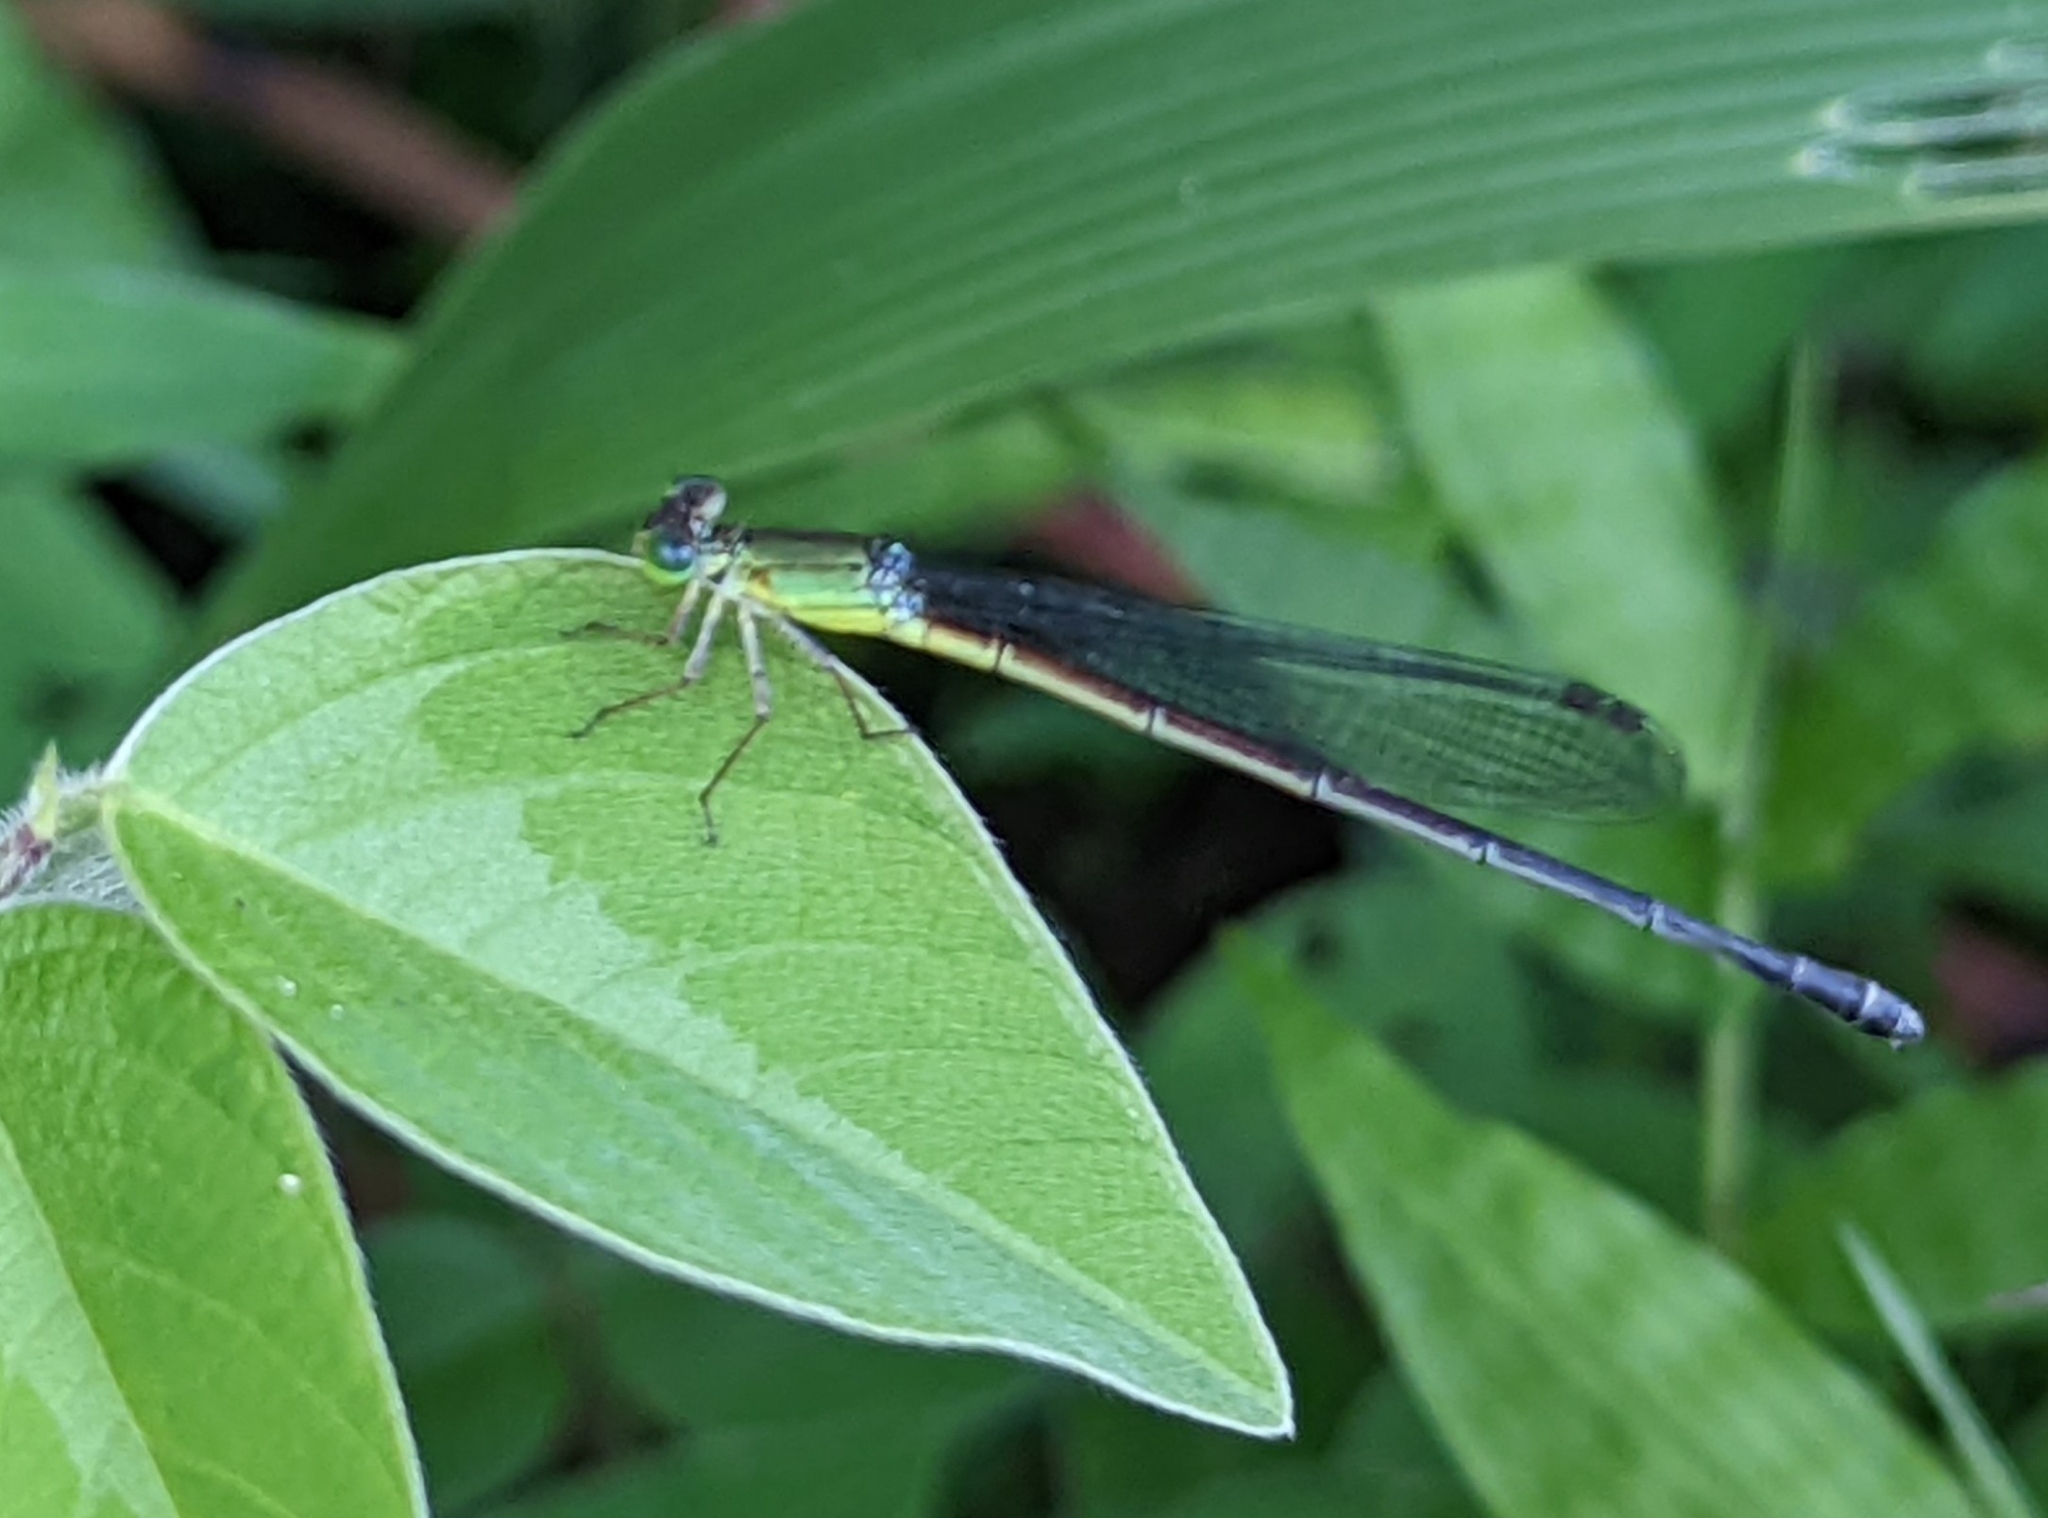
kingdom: Animalia
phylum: Arthropoda
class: Insecta
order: Odonata
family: Coenagrionidae
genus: Ceriagrion
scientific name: Ceriagrion fallax
